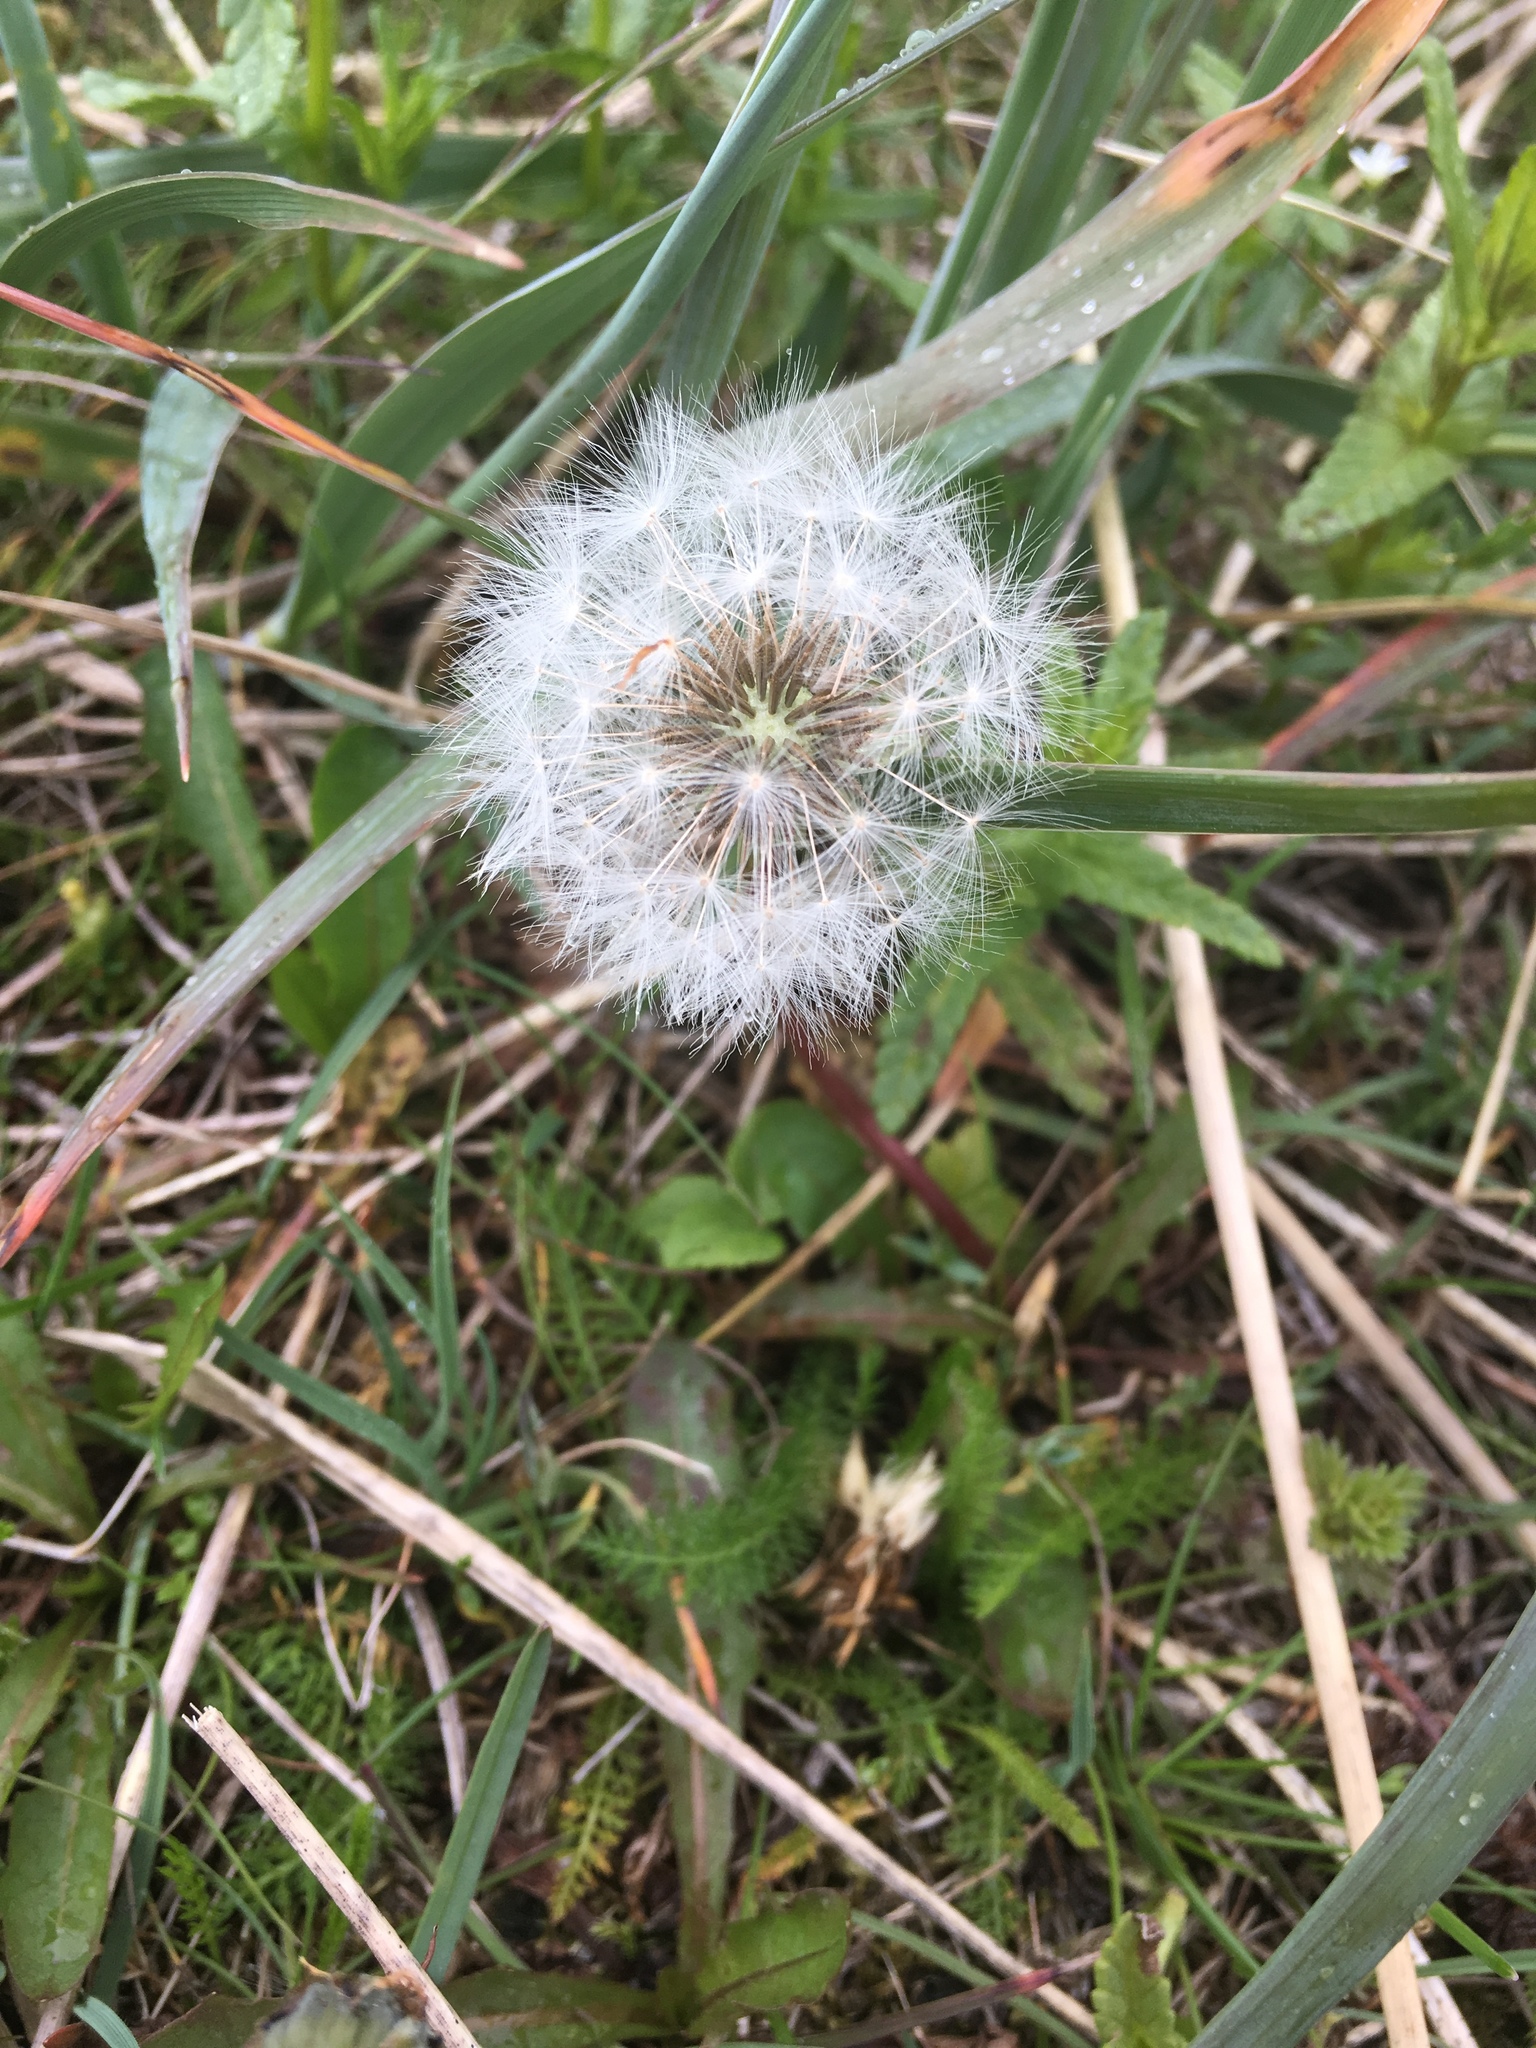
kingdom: Plantae
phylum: Tracheophyta
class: Magnoliopsida
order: Asterales
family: Asteraceae
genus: Taraxacum
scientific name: Taraxacum officinale
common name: Common dandelion
